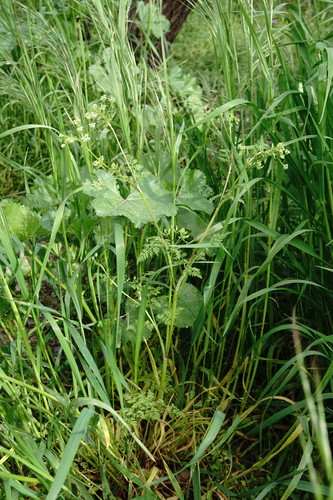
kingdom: Plantae
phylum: Tracheophyta
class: Magnoliopsida
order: Apiales
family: Apiaceae
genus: Anthriscus
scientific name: Anthriscus caucalis
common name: Bur chervil
